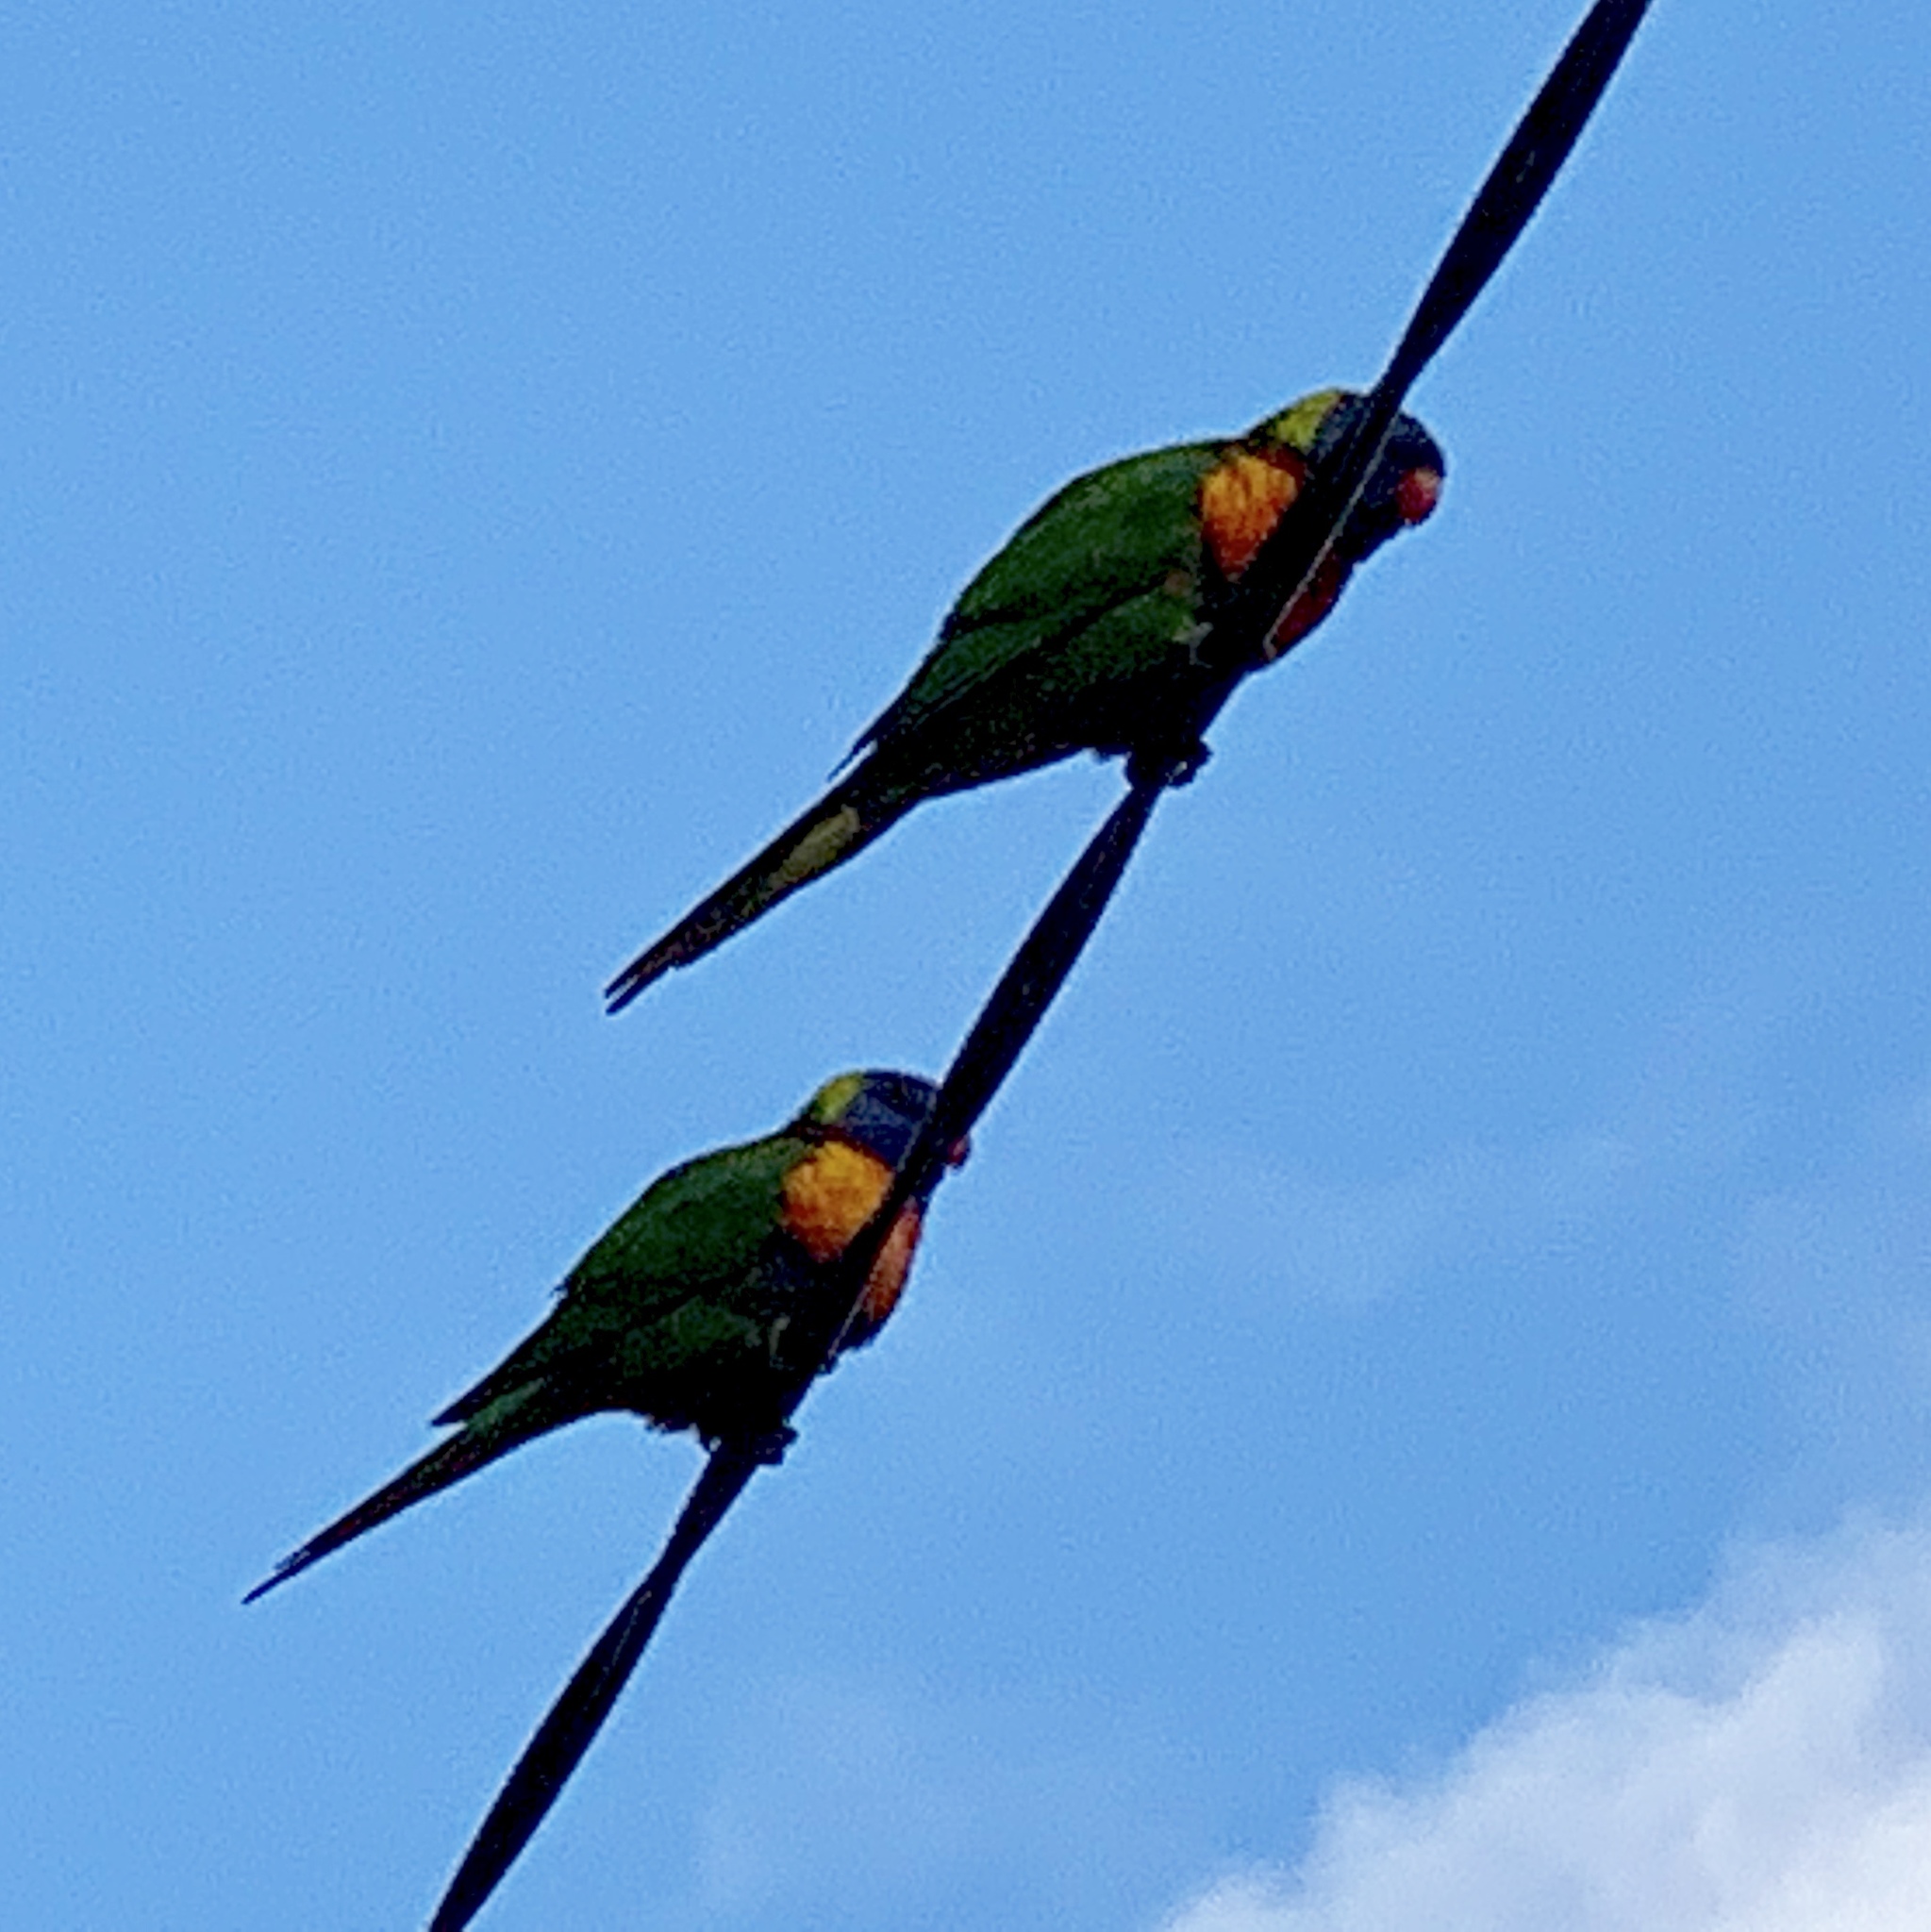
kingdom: Animalia
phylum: Chordata
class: Aves
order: Psittaciformes
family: Psittacidae
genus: Trichoglossus
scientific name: Trichoglossus haematodus
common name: Coconut lorikeet
